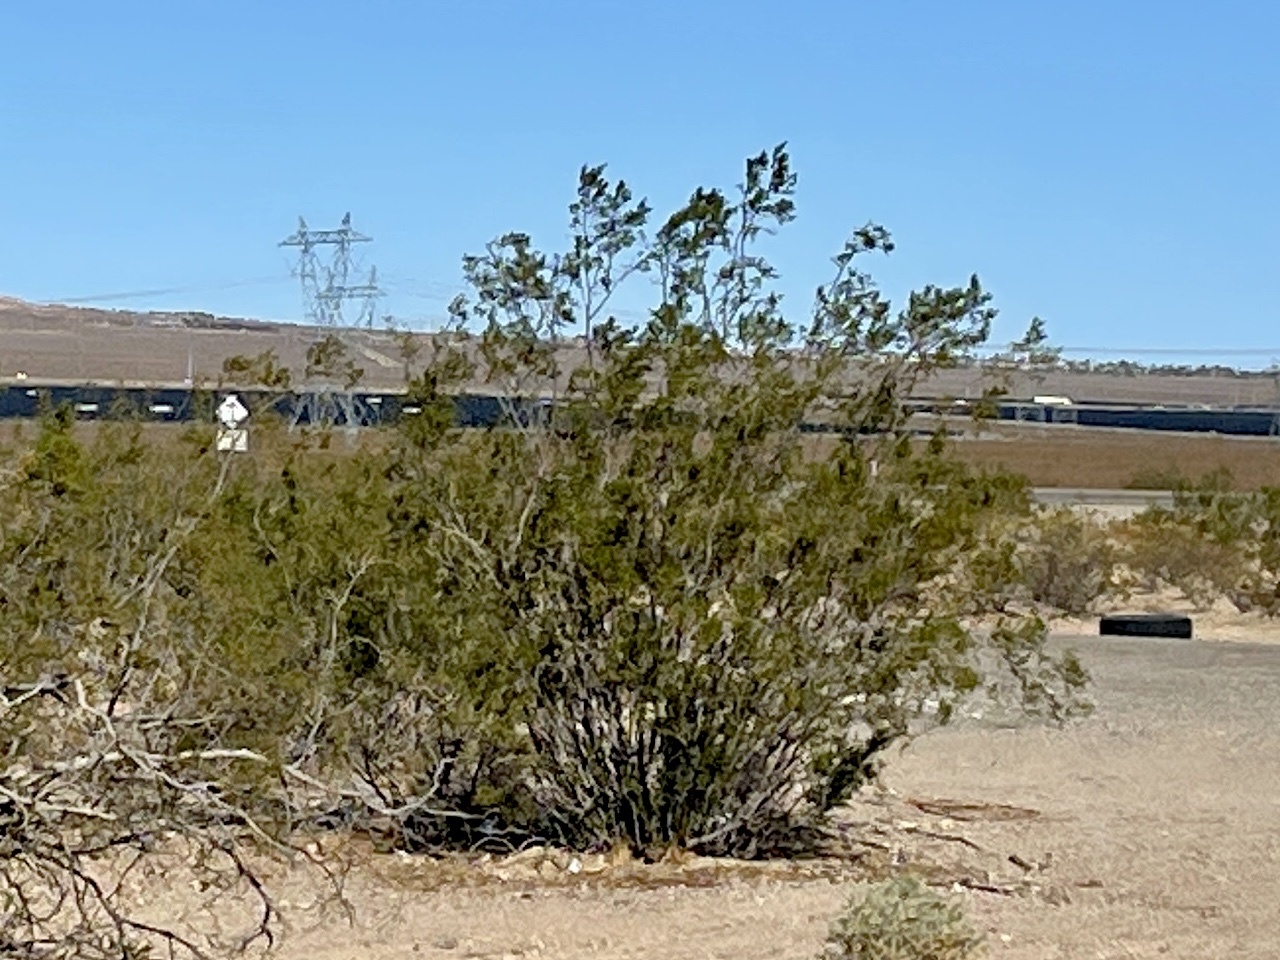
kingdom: Plantae
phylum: Tracheophyta
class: Magnoliopsida
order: Zygophyllales
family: Zygophyllaceae
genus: Larrea
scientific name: Larrea tridentata
